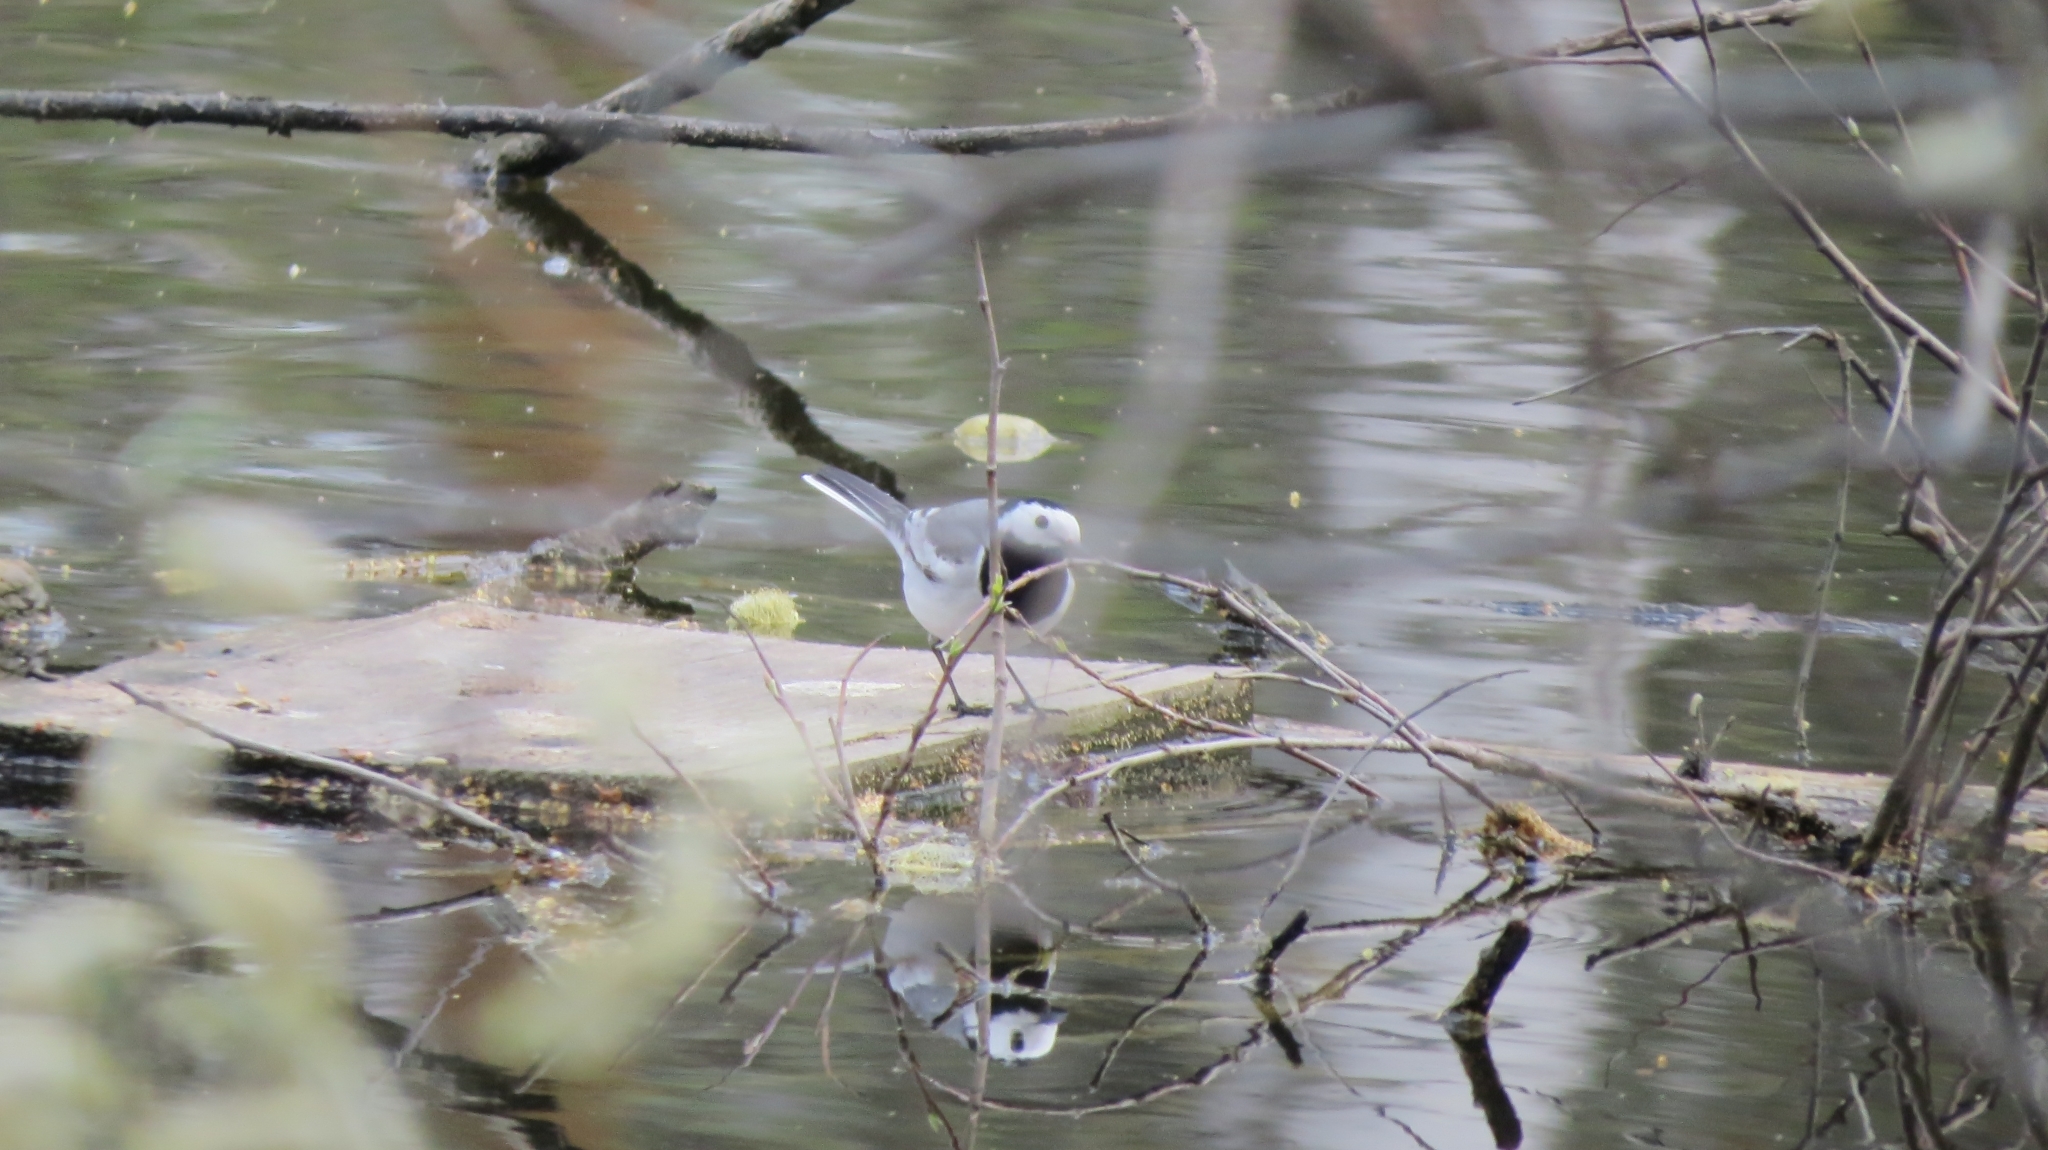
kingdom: Animalia
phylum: Chordata
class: Aves
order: Passeriformes
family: Motacillidae
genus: Motacilla
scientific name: Motacilla alba
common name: White wagtail
